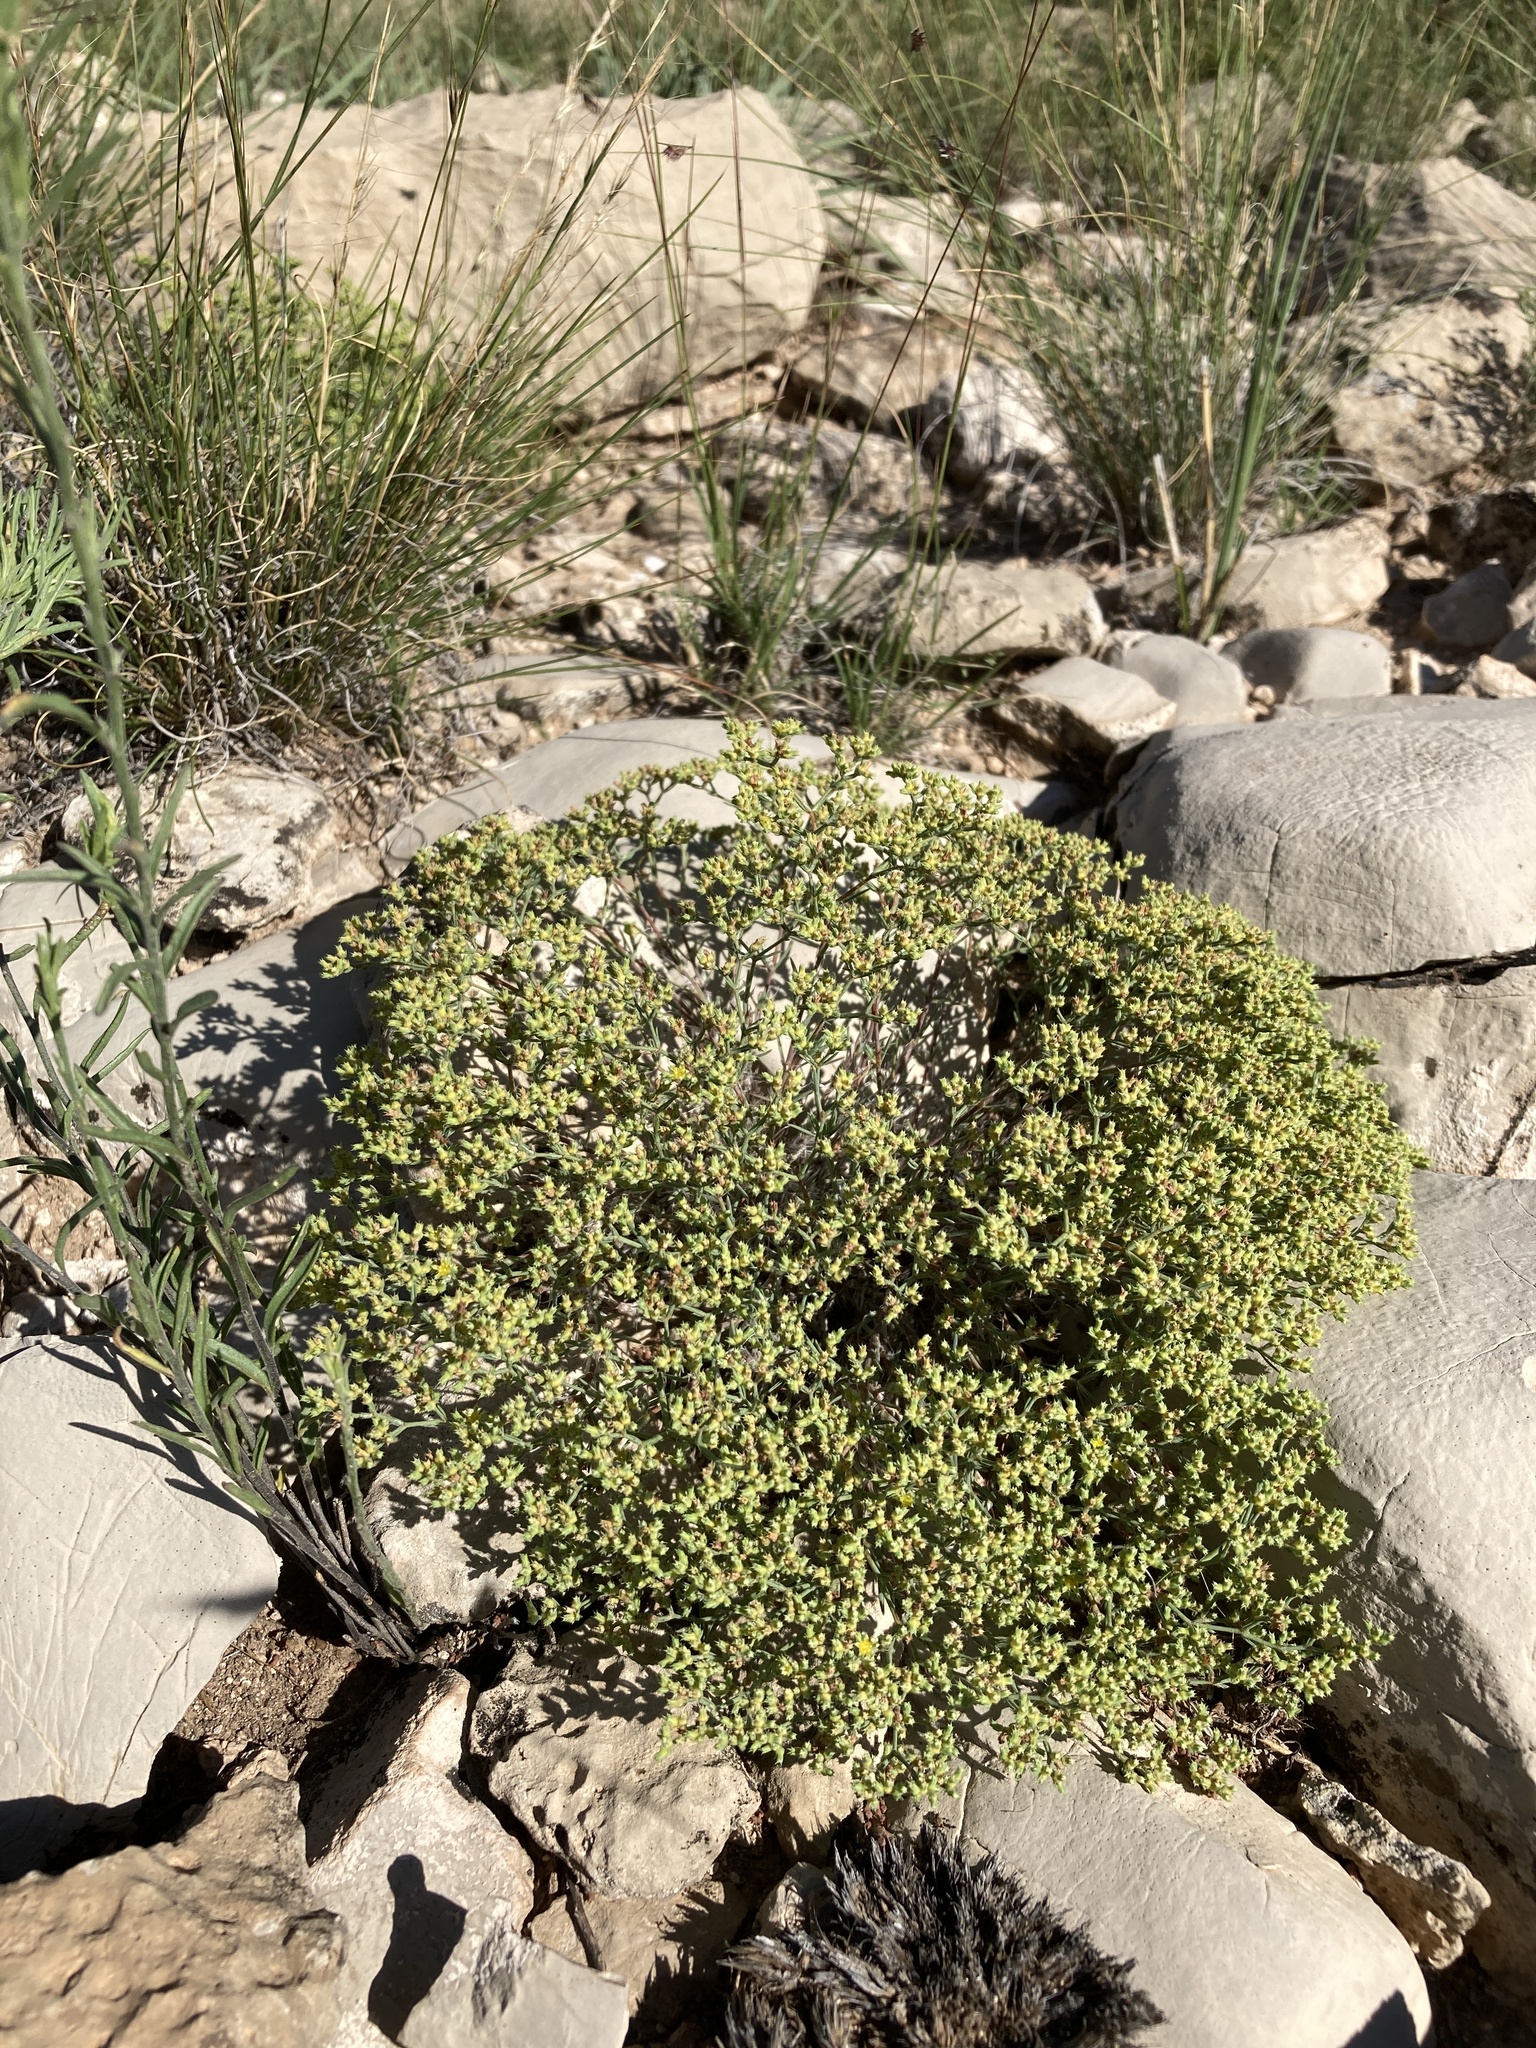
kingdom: Plantae
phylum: Tracheophyta
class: Magnoliopsida
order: Caryophyllales
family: Caryophyllaceae
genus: Paronychia
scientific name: Paronychia jamesii
